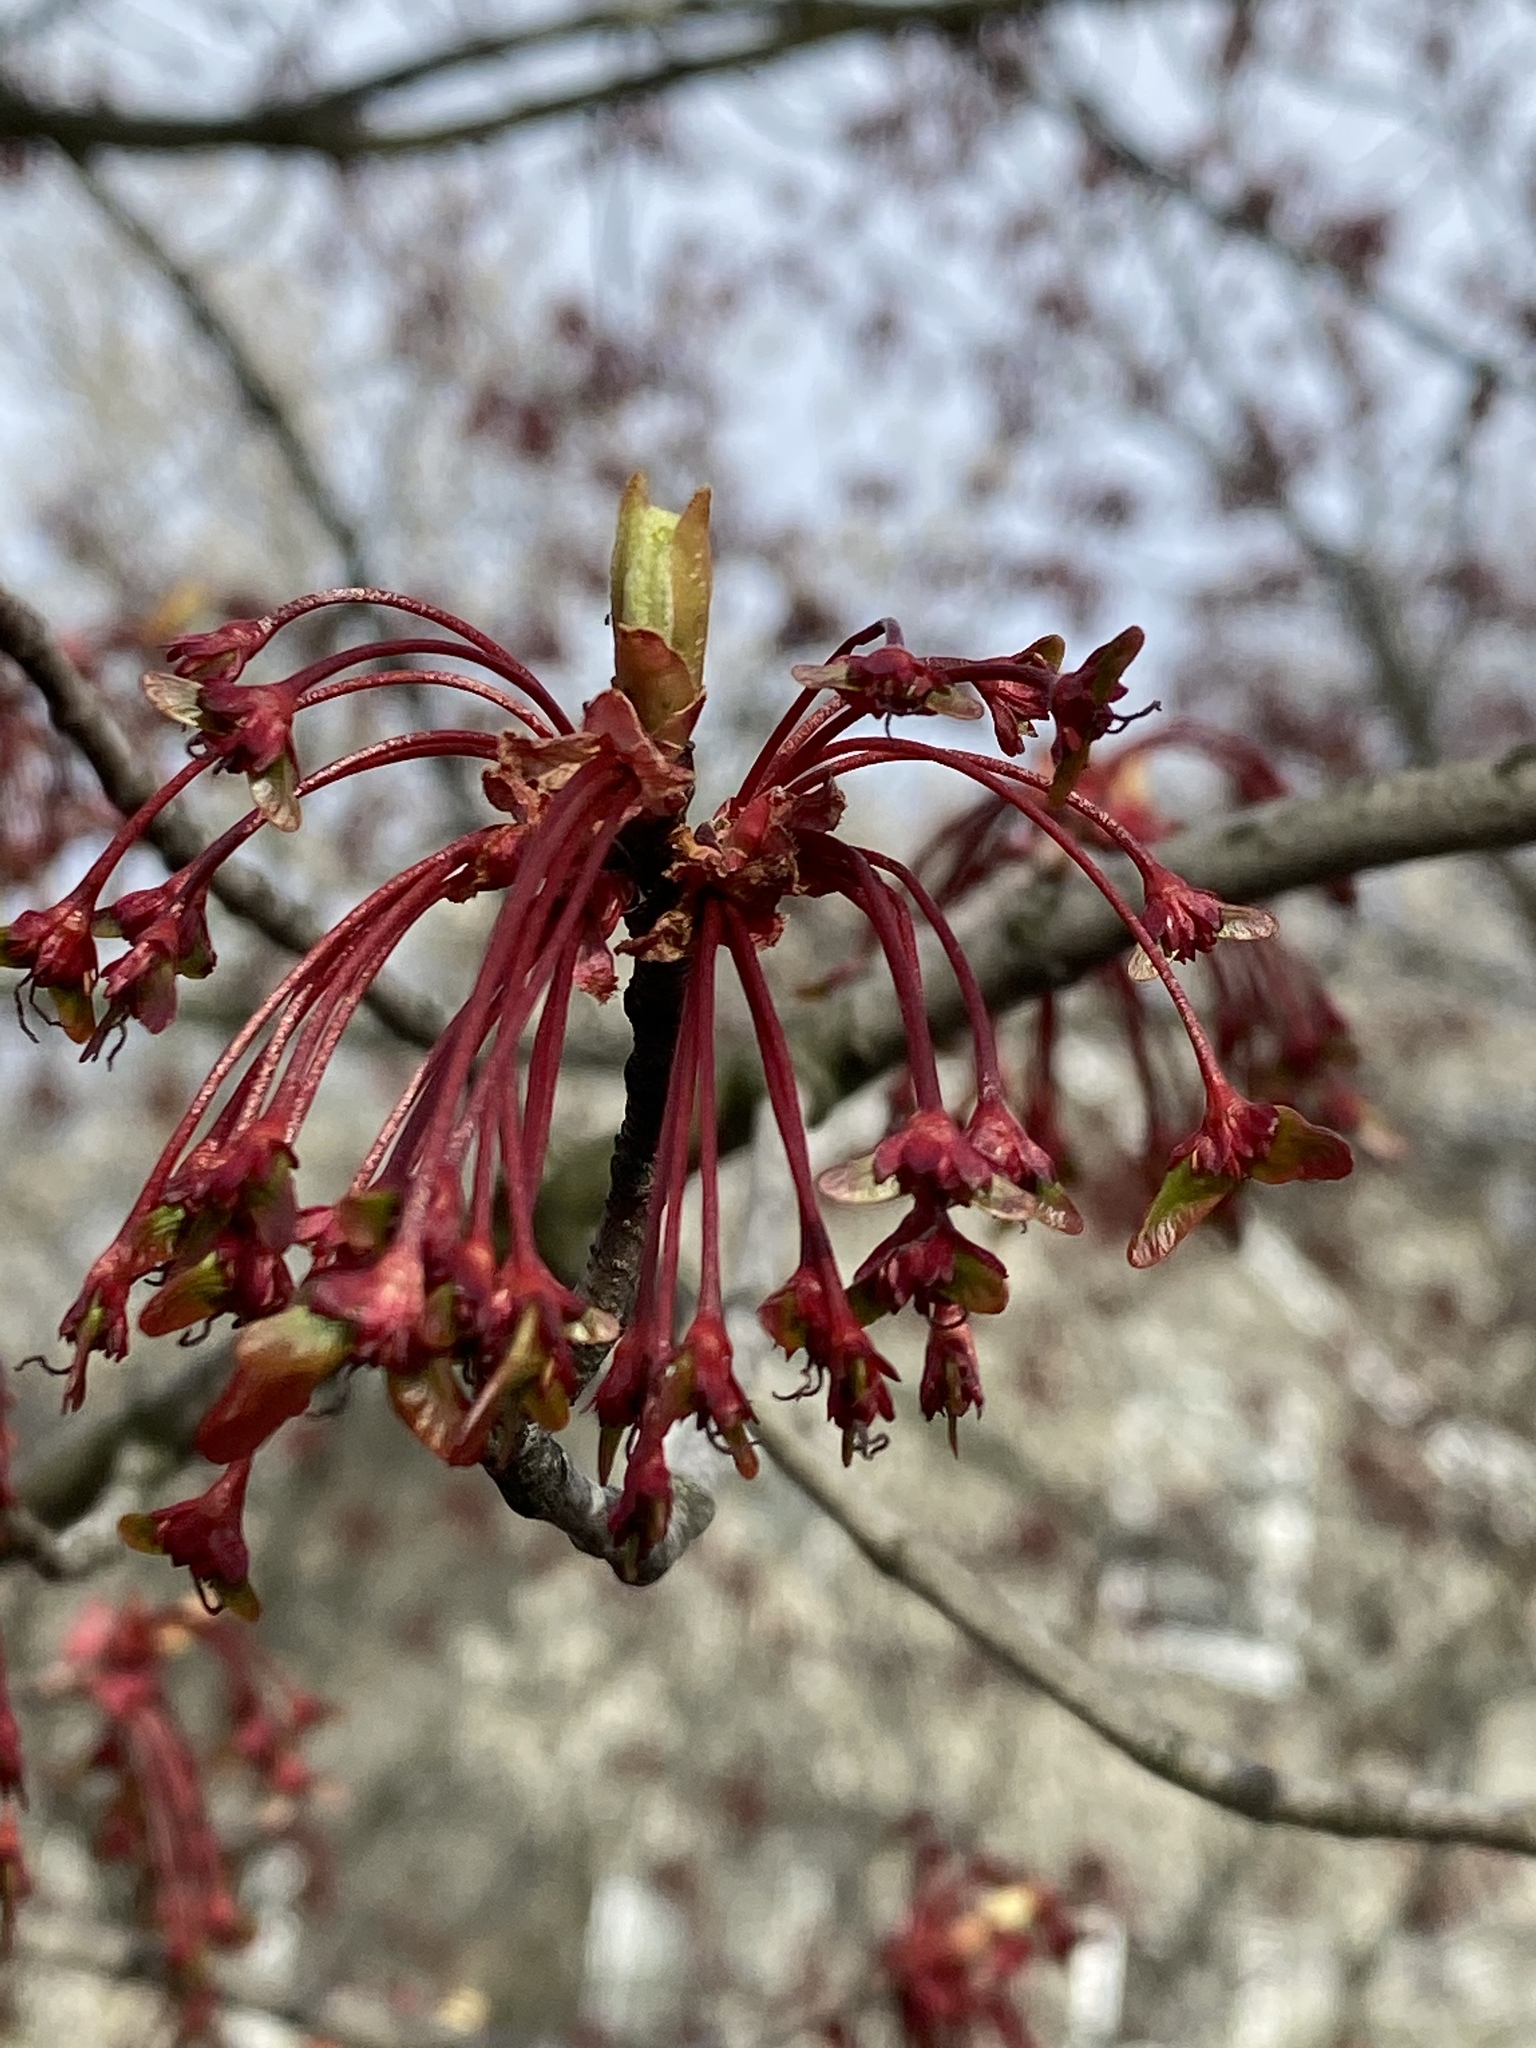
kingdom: Plantae
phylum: Tracheophyta
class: Magnoliopsida
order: Sapindales
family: Sapindaceae
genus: Acer
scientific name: Acer rubrum
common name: Red maple
